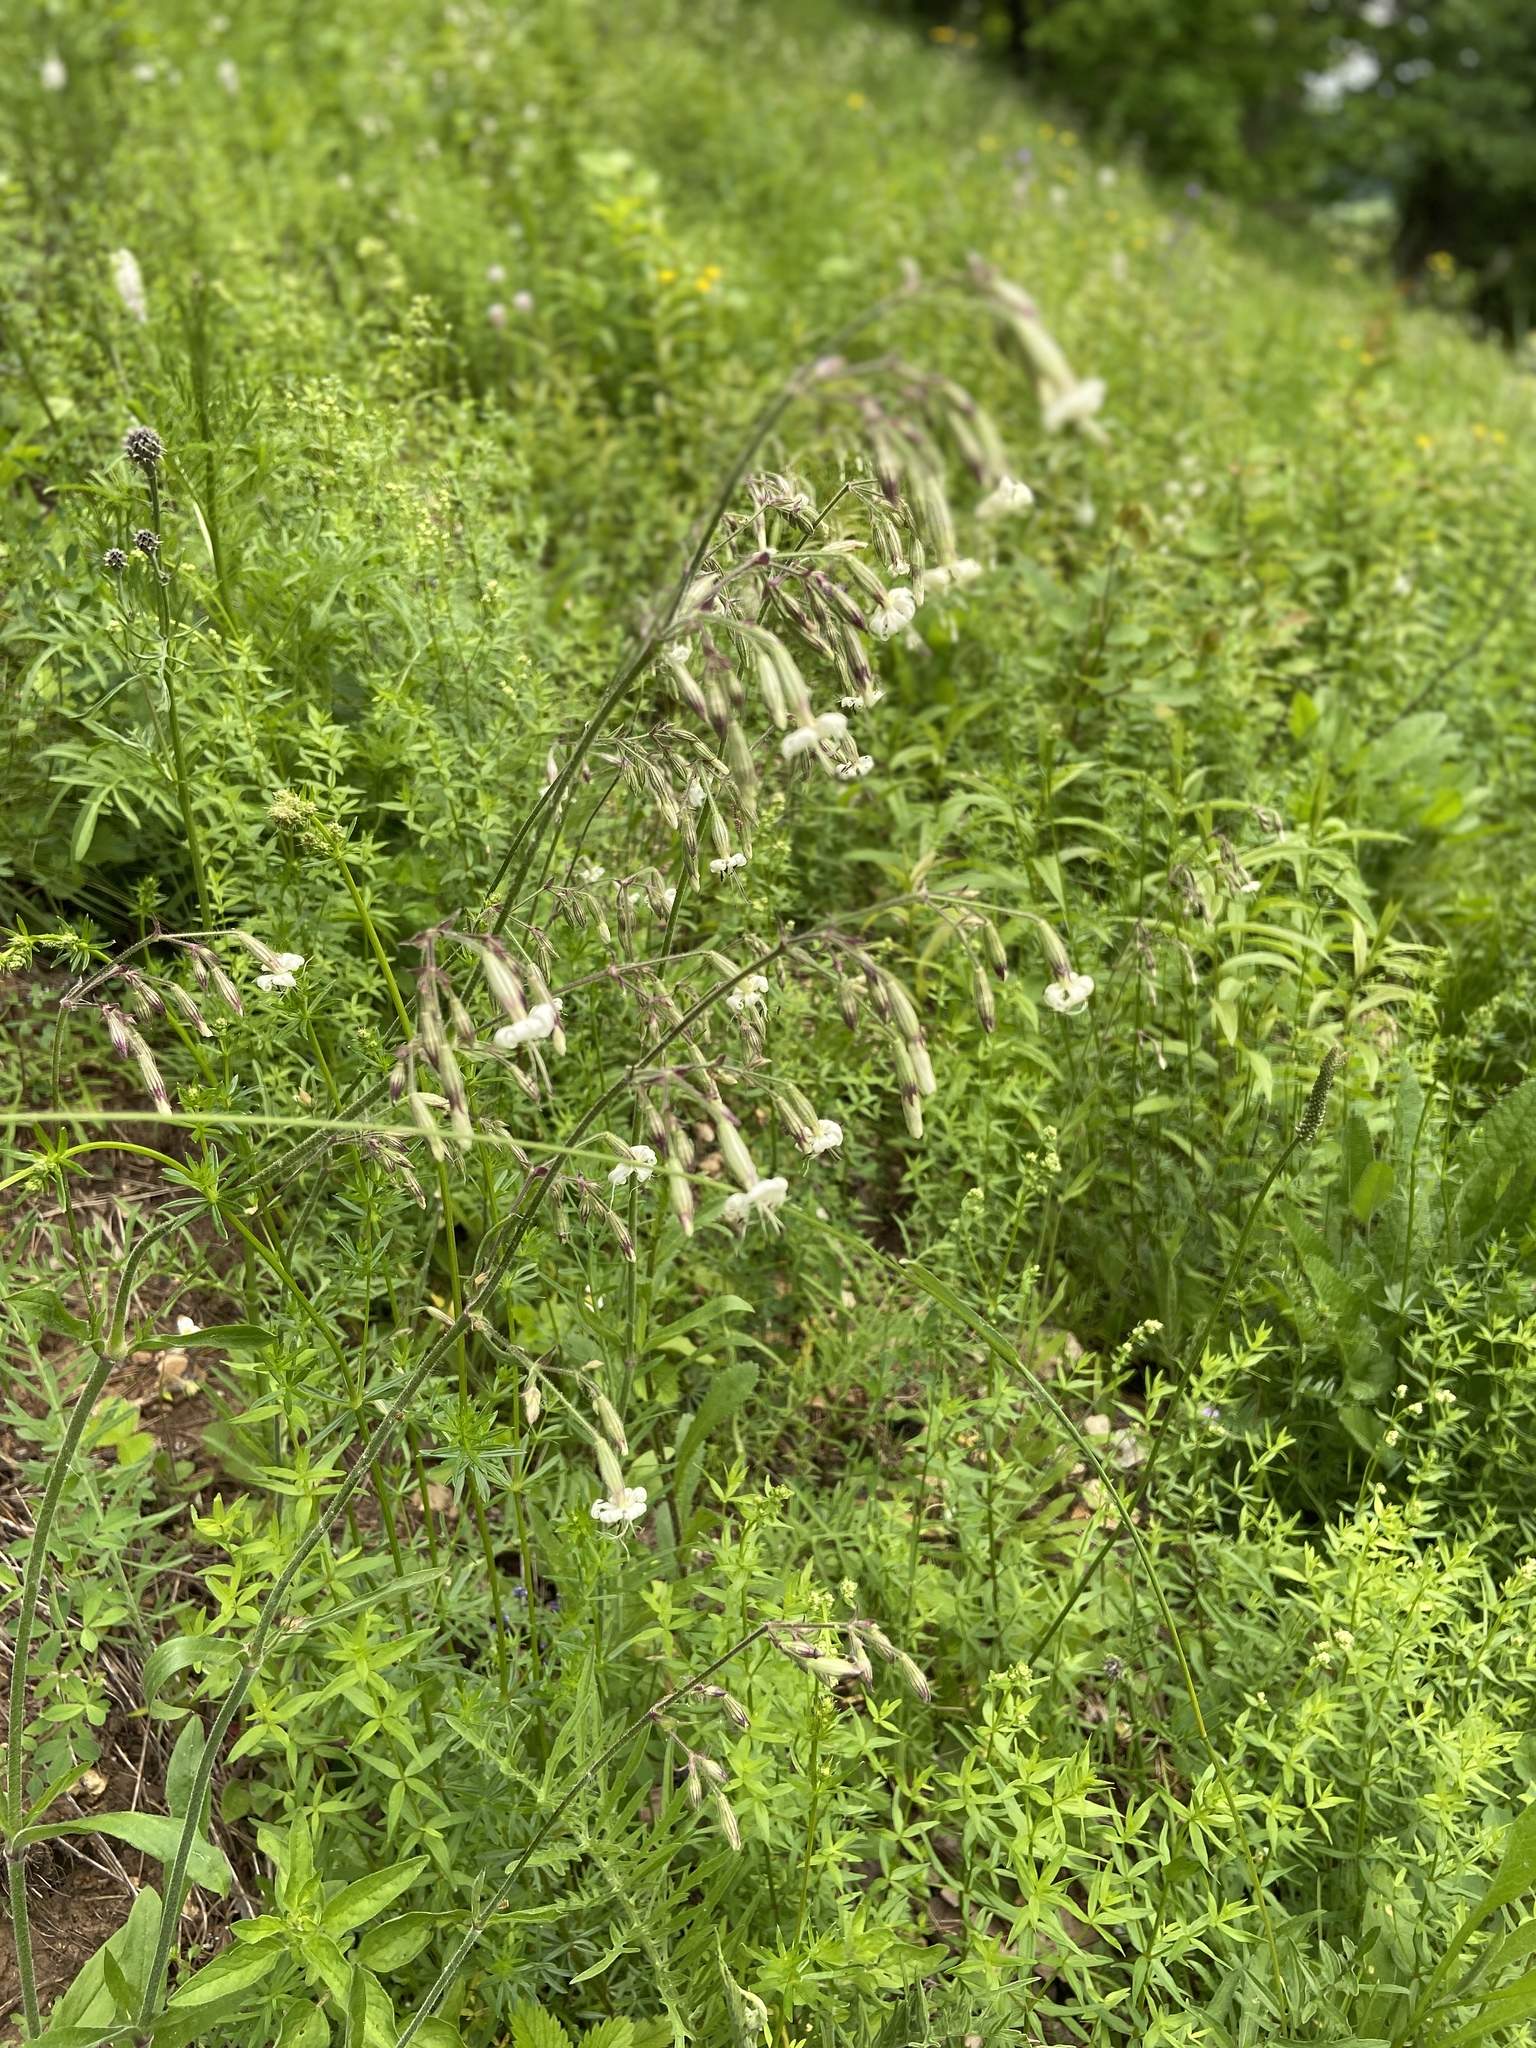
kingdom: Plantae
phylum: Tracheophyta
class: Magnoliopsida
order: Caryophyllales
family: Caryophyllaceae
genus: Silene
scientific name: Silene nutans
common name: Nottingham catchfly
